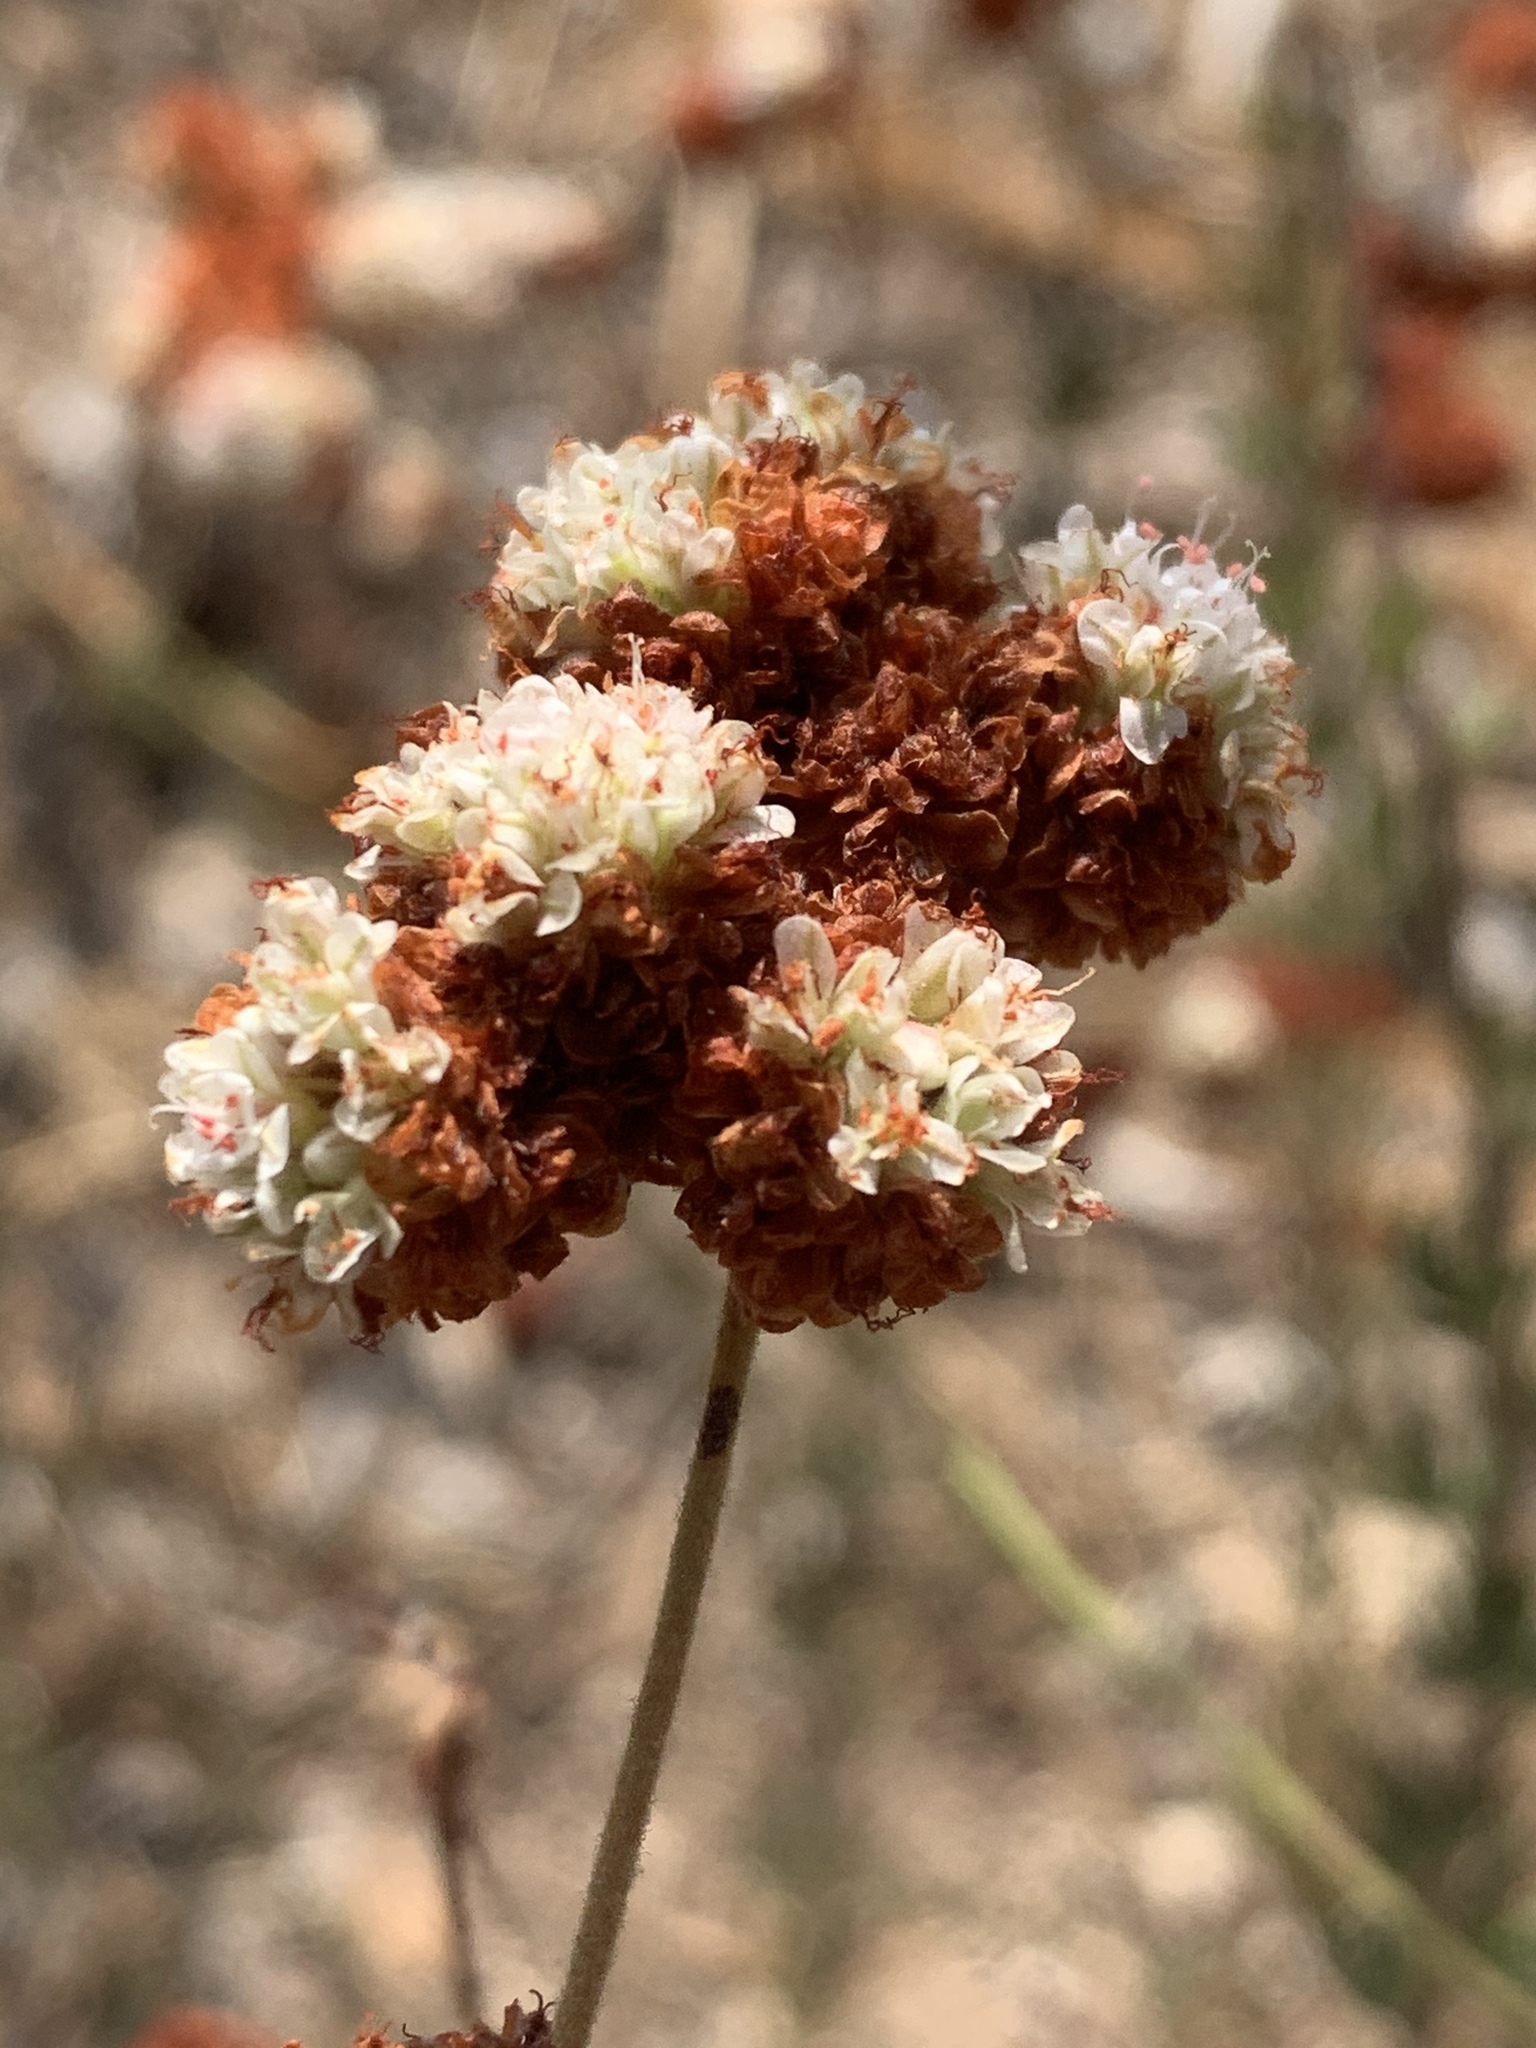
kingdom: Plantae
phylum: Tracheophyta
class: Magnoliopsida
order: Caryophyllales
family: Polygonaceae
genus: Eriogonum
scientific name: Eriogonum fasciculatum
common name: California wild buckwheat
